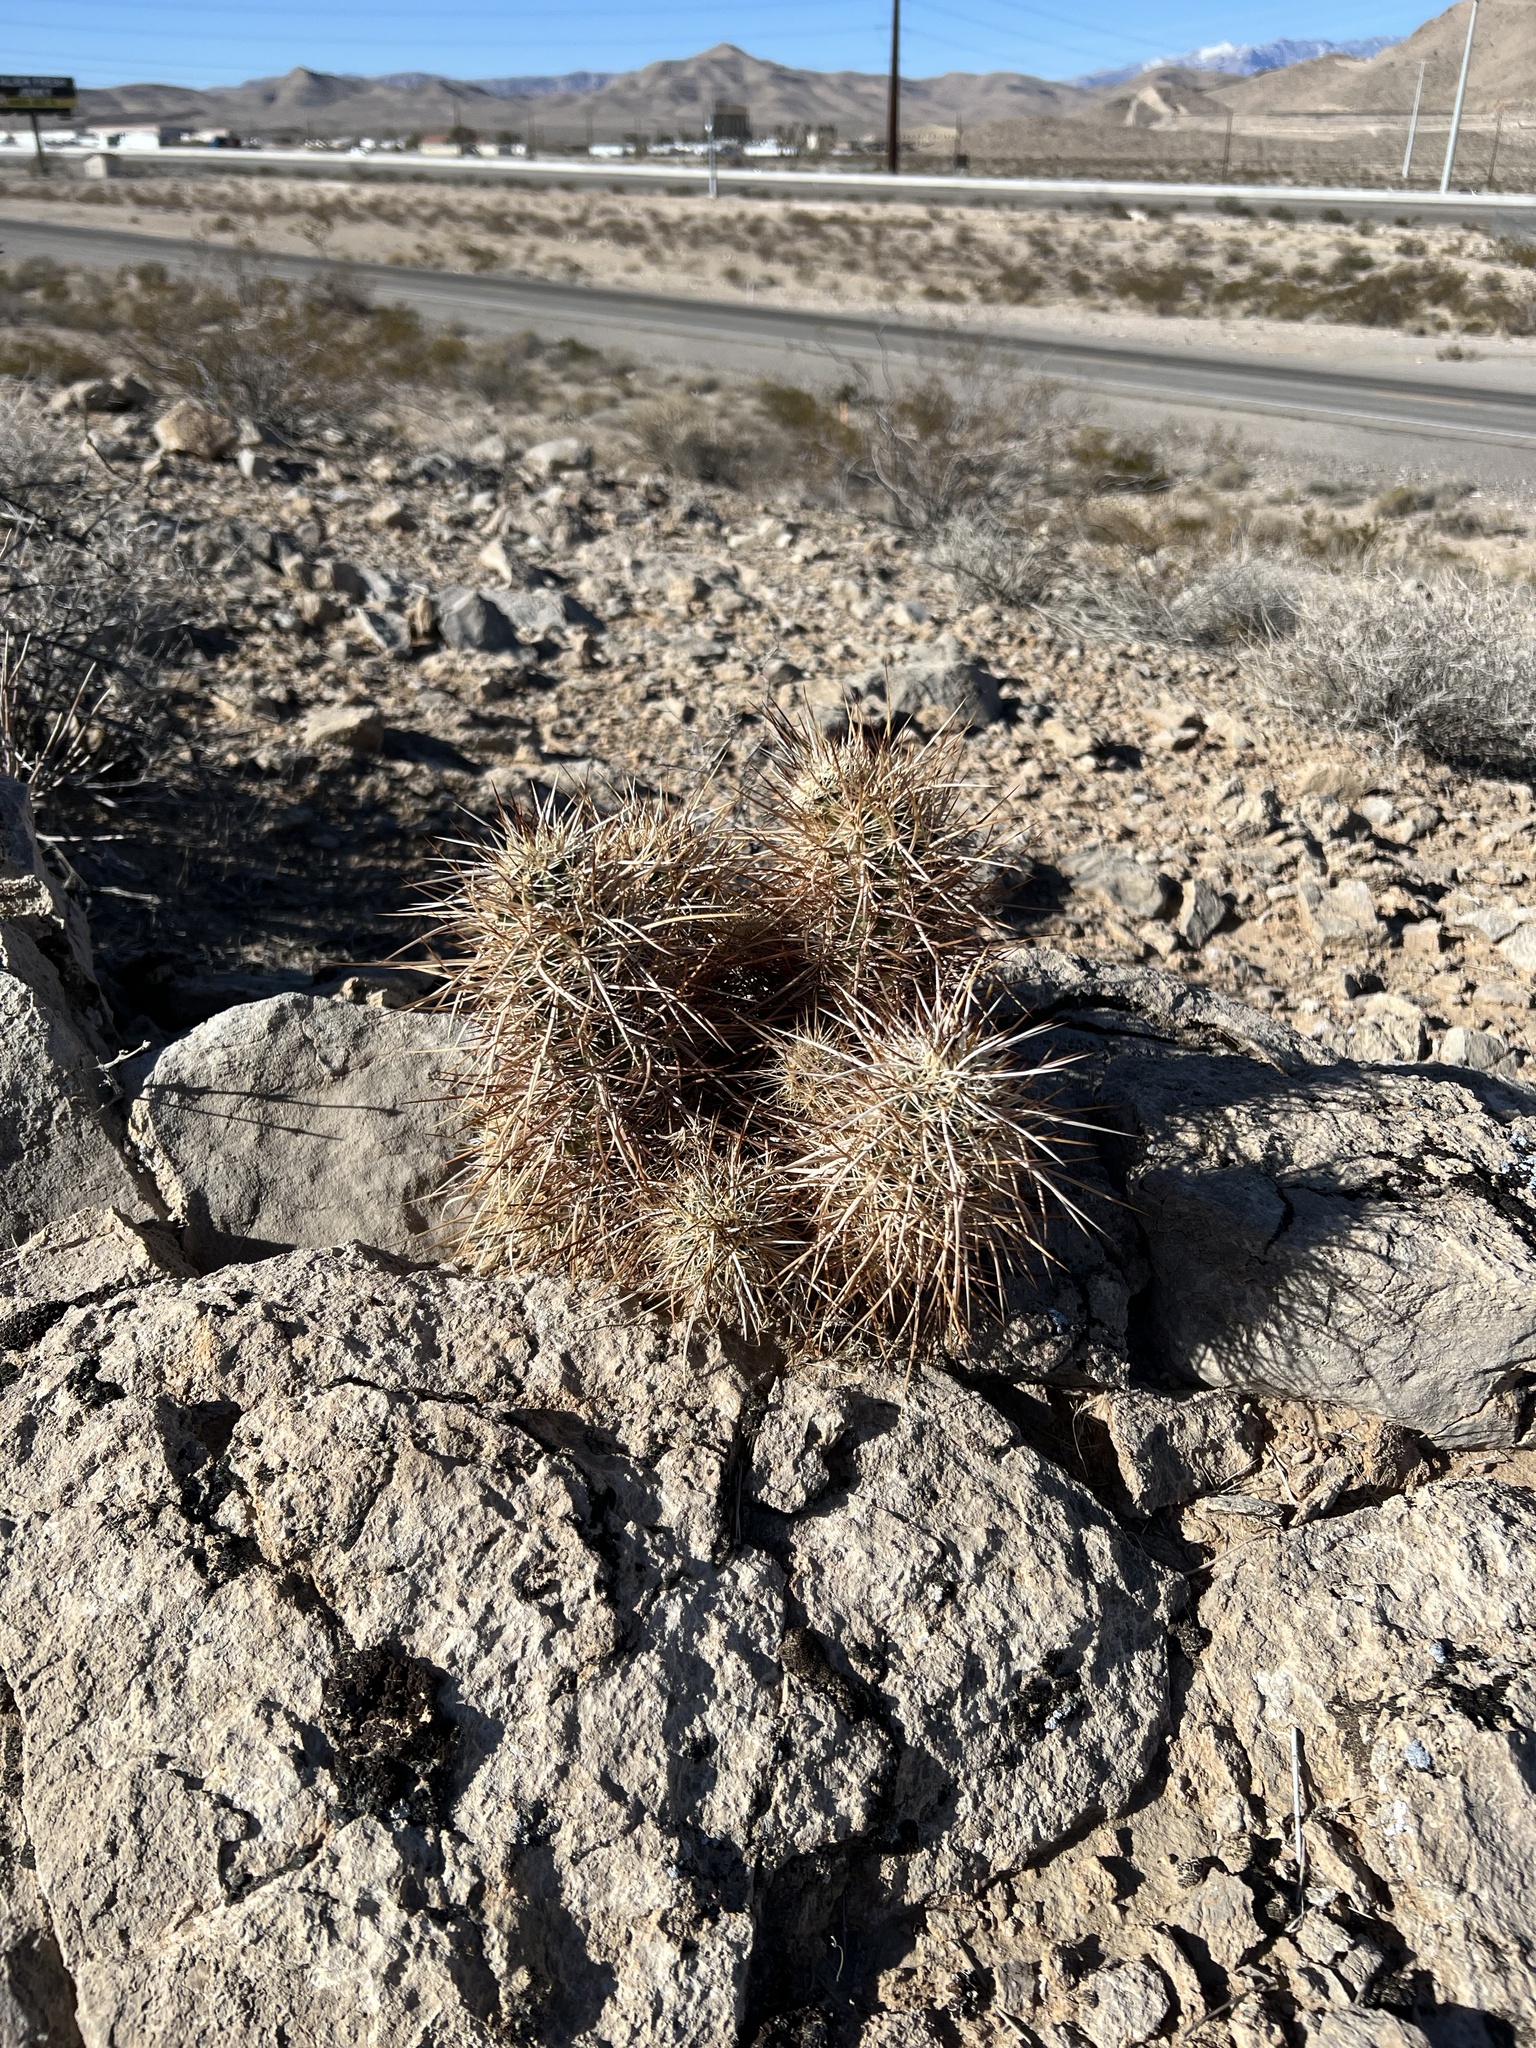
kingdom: Plantae
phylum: Tracheophyta
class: Magnoliopsida
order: Caryophyllales
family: Cactaceae
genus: Echinocereus
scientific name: Echinocereus engelmannii
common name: Engelmann's hedgehog cactus
